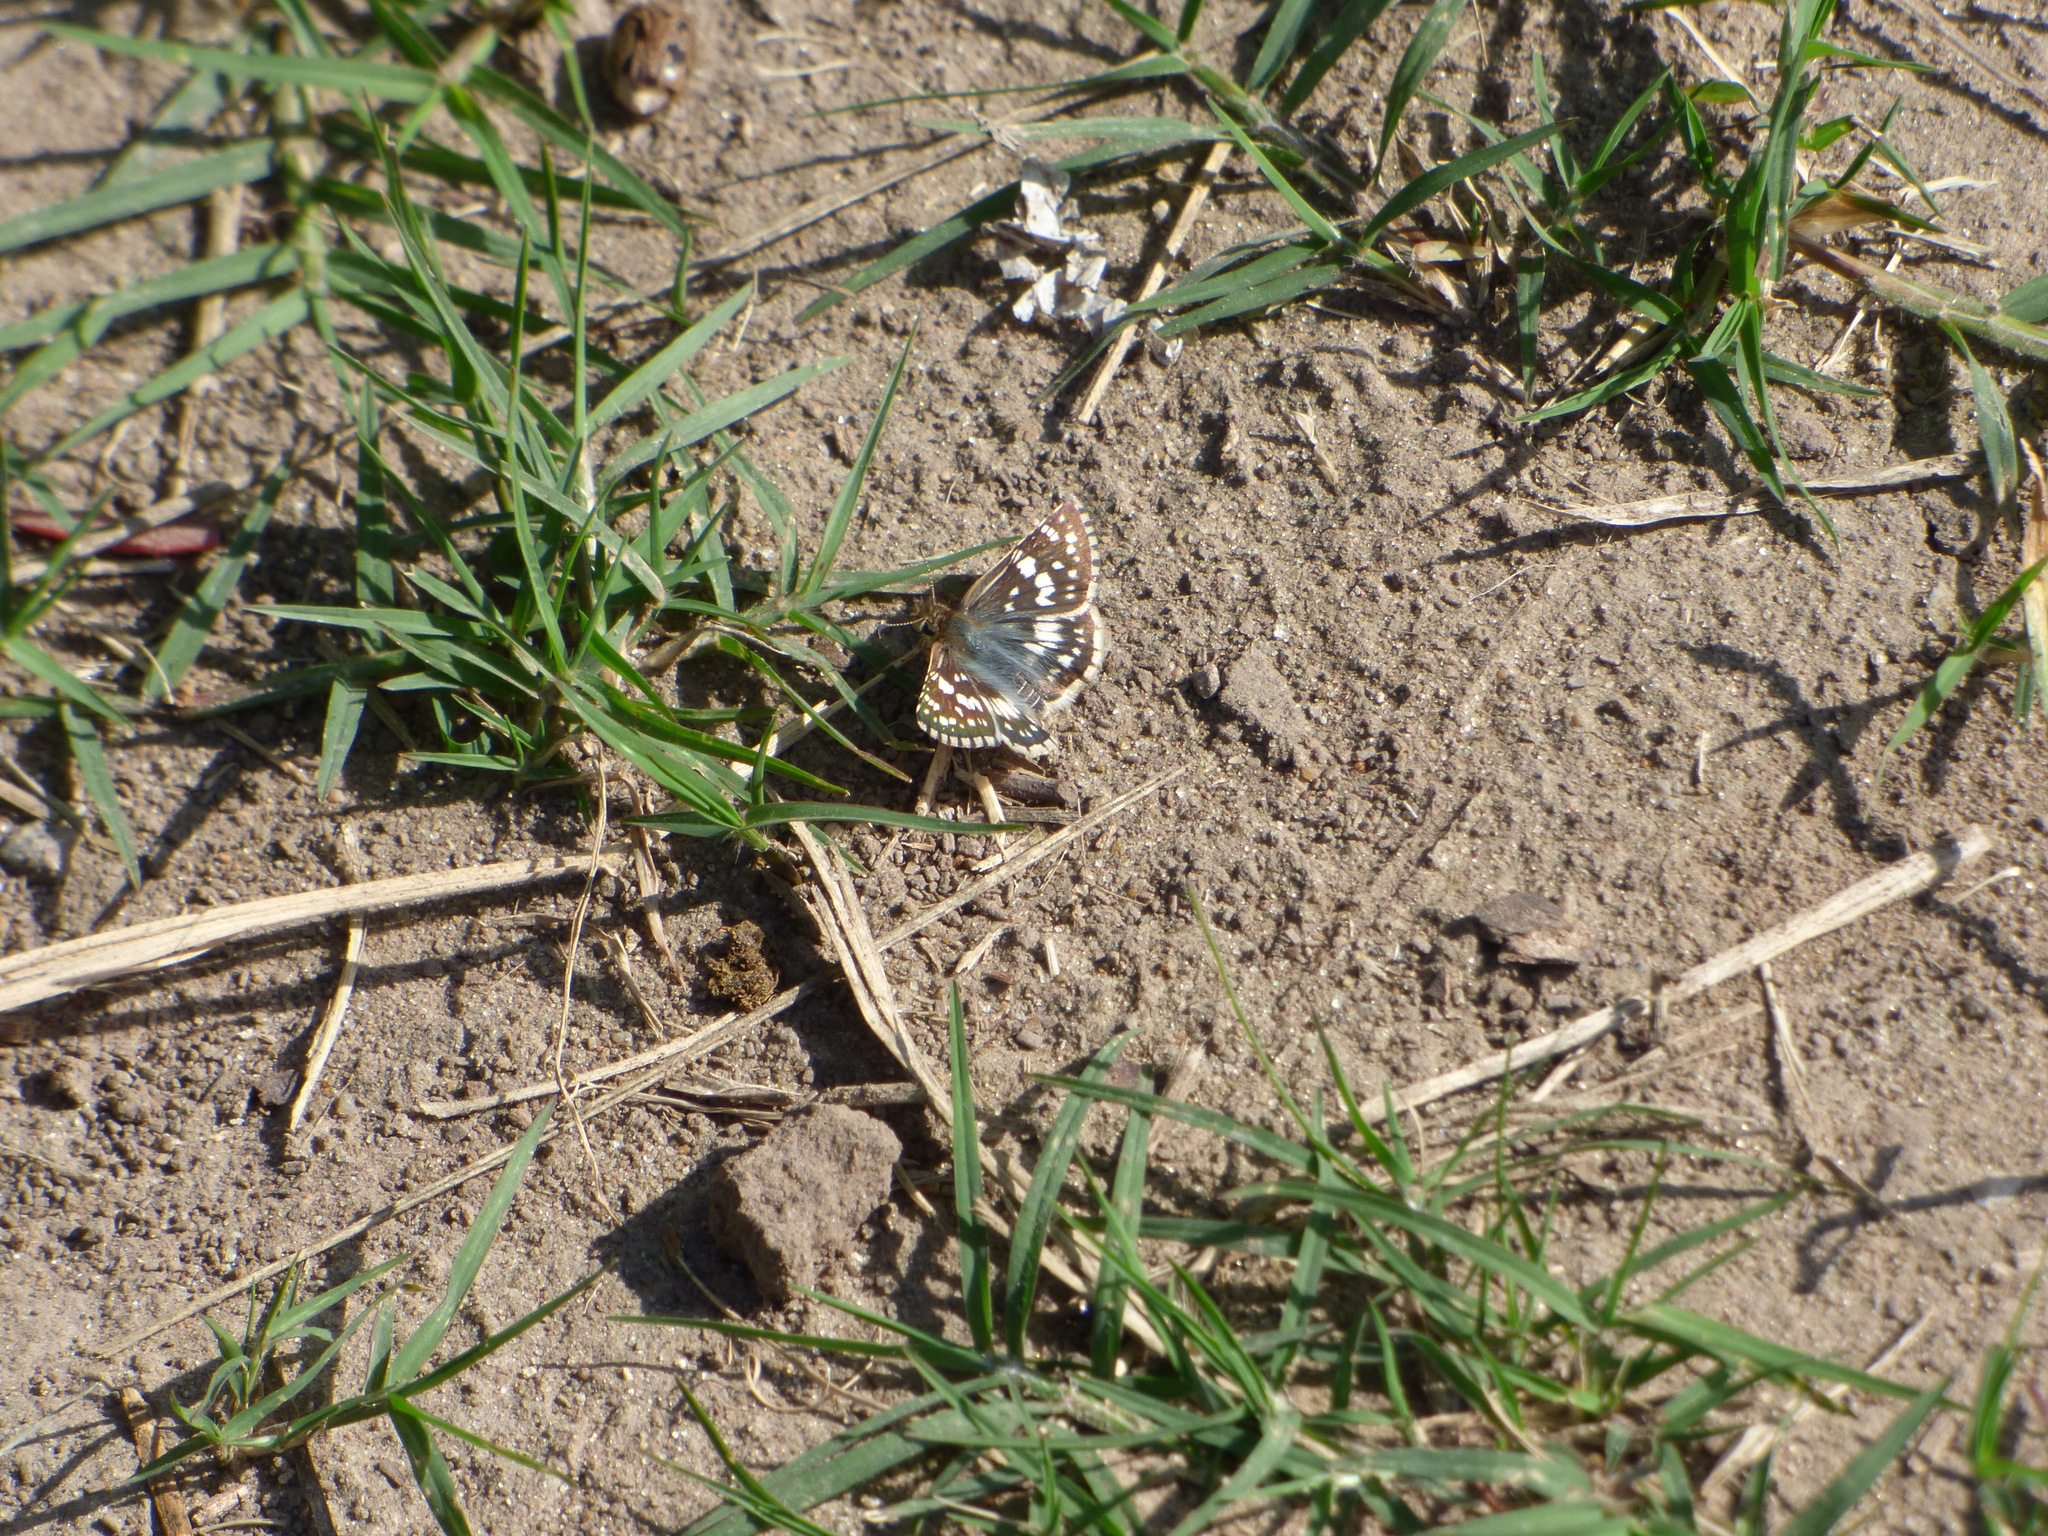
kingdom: Animalia
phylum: Arthropoda
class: Insecta
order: Lepidoptera
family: Hesperiidae
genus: Burnsius
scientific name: Burnsius orcynoides
